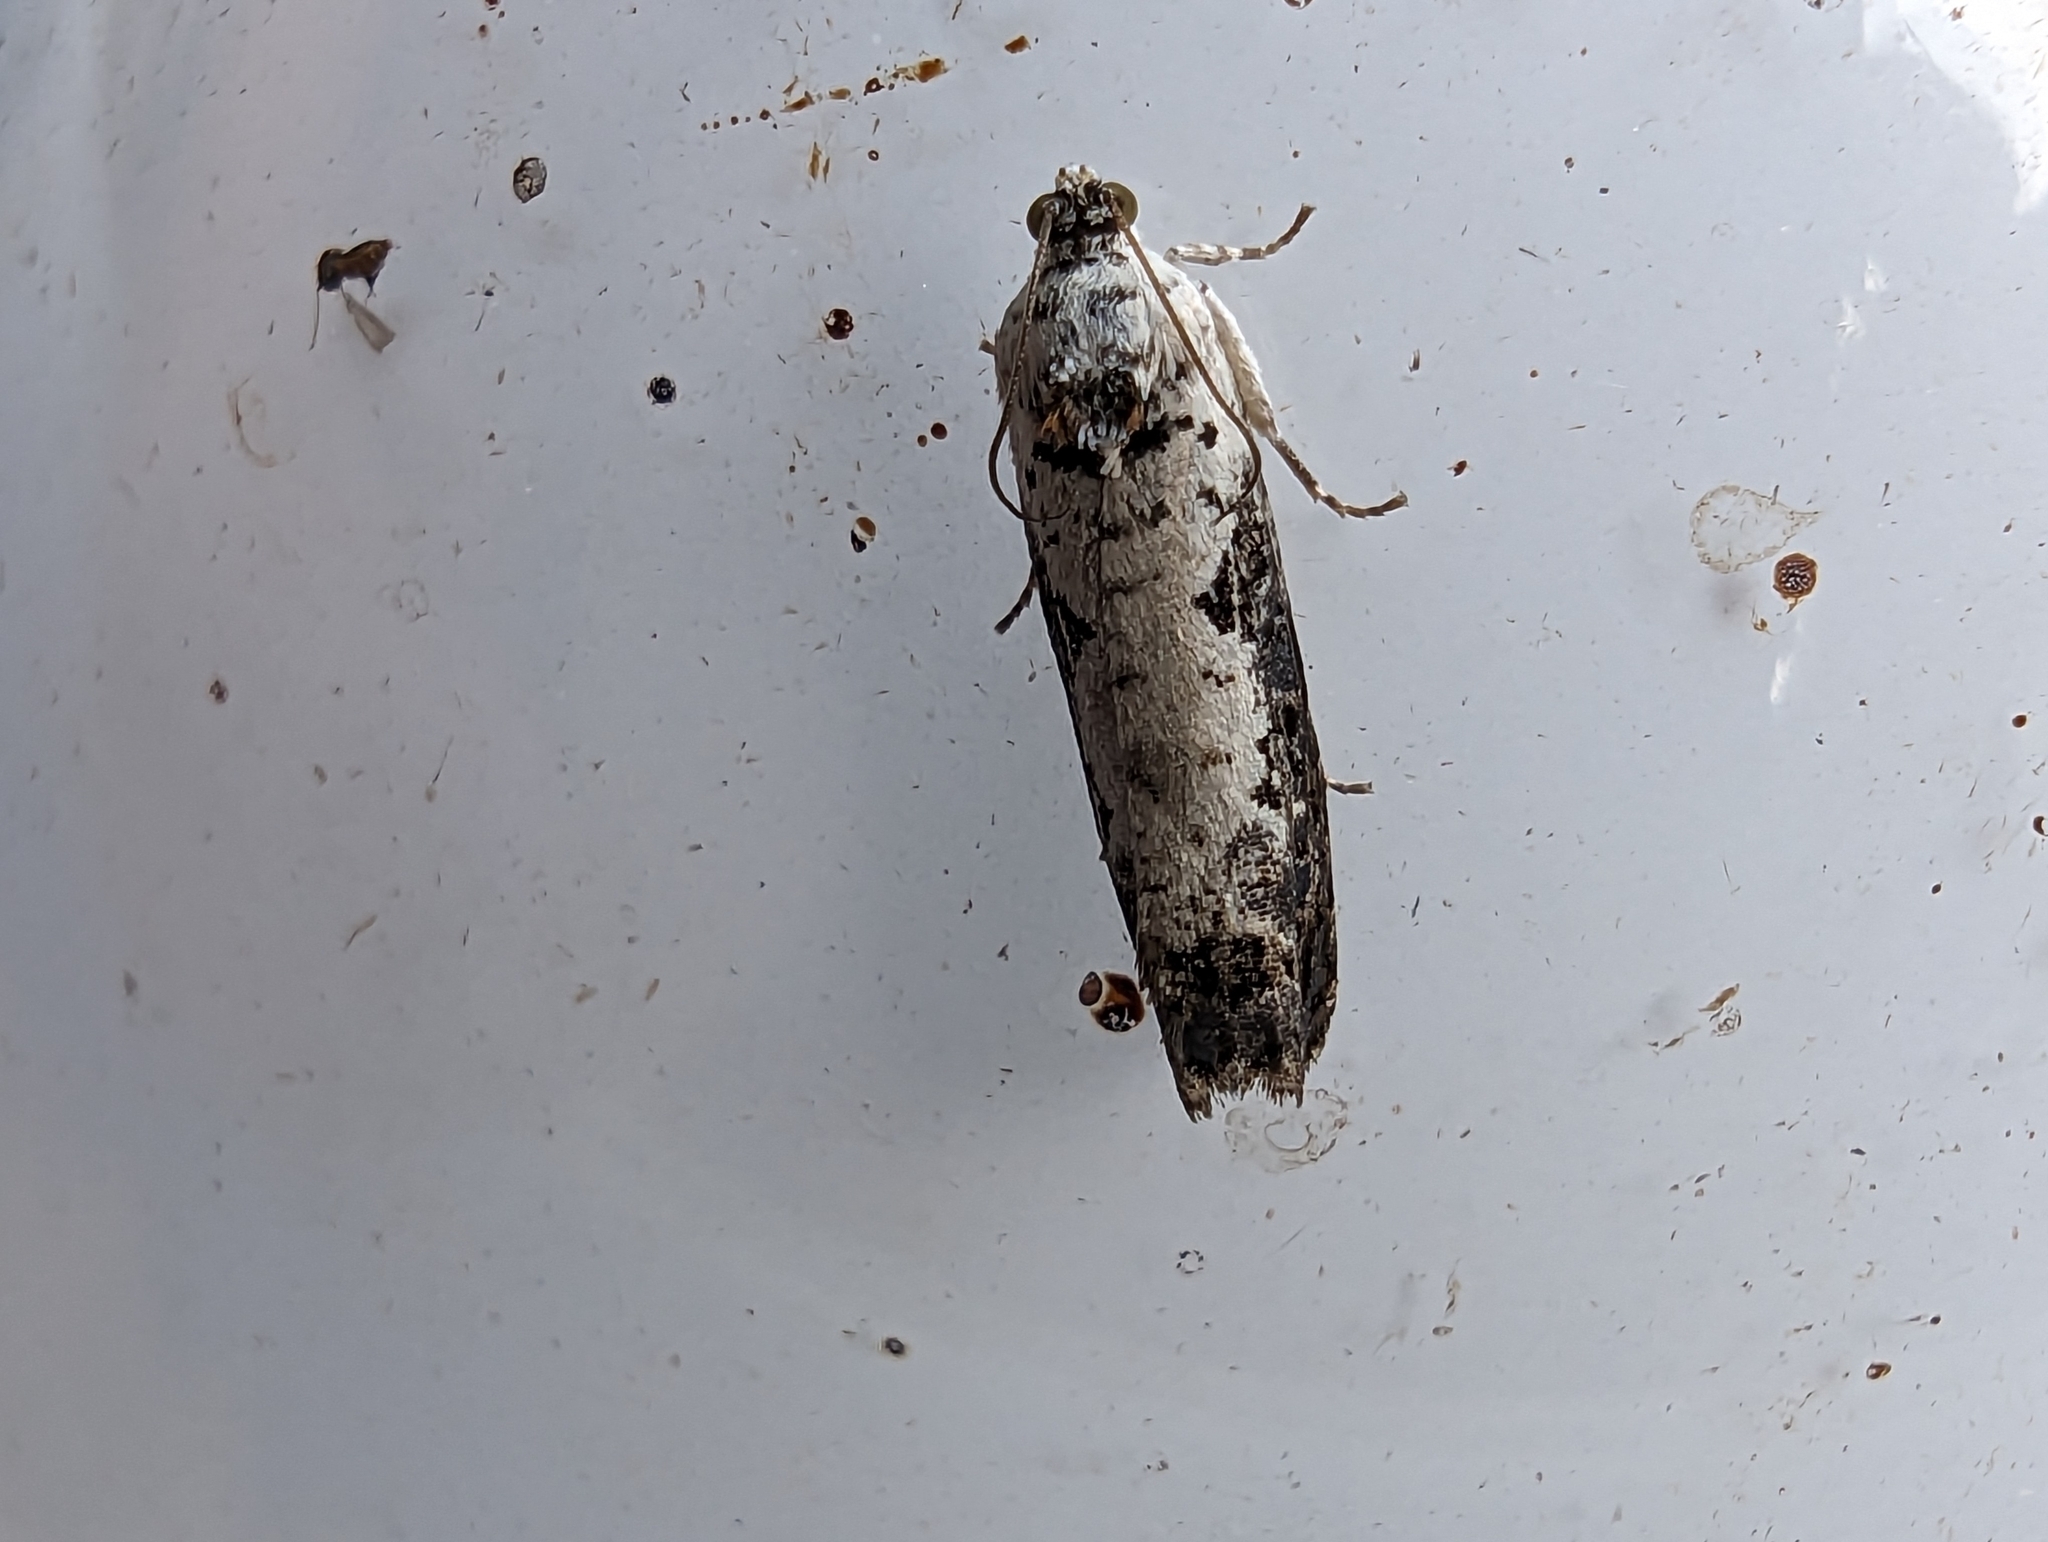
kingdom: Animalia
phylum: Arthropoda
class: Insecta
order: Lepidoptera
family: Tortricidae
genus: Hedya
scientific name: Hedya salicella
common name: Large tortricid moth
